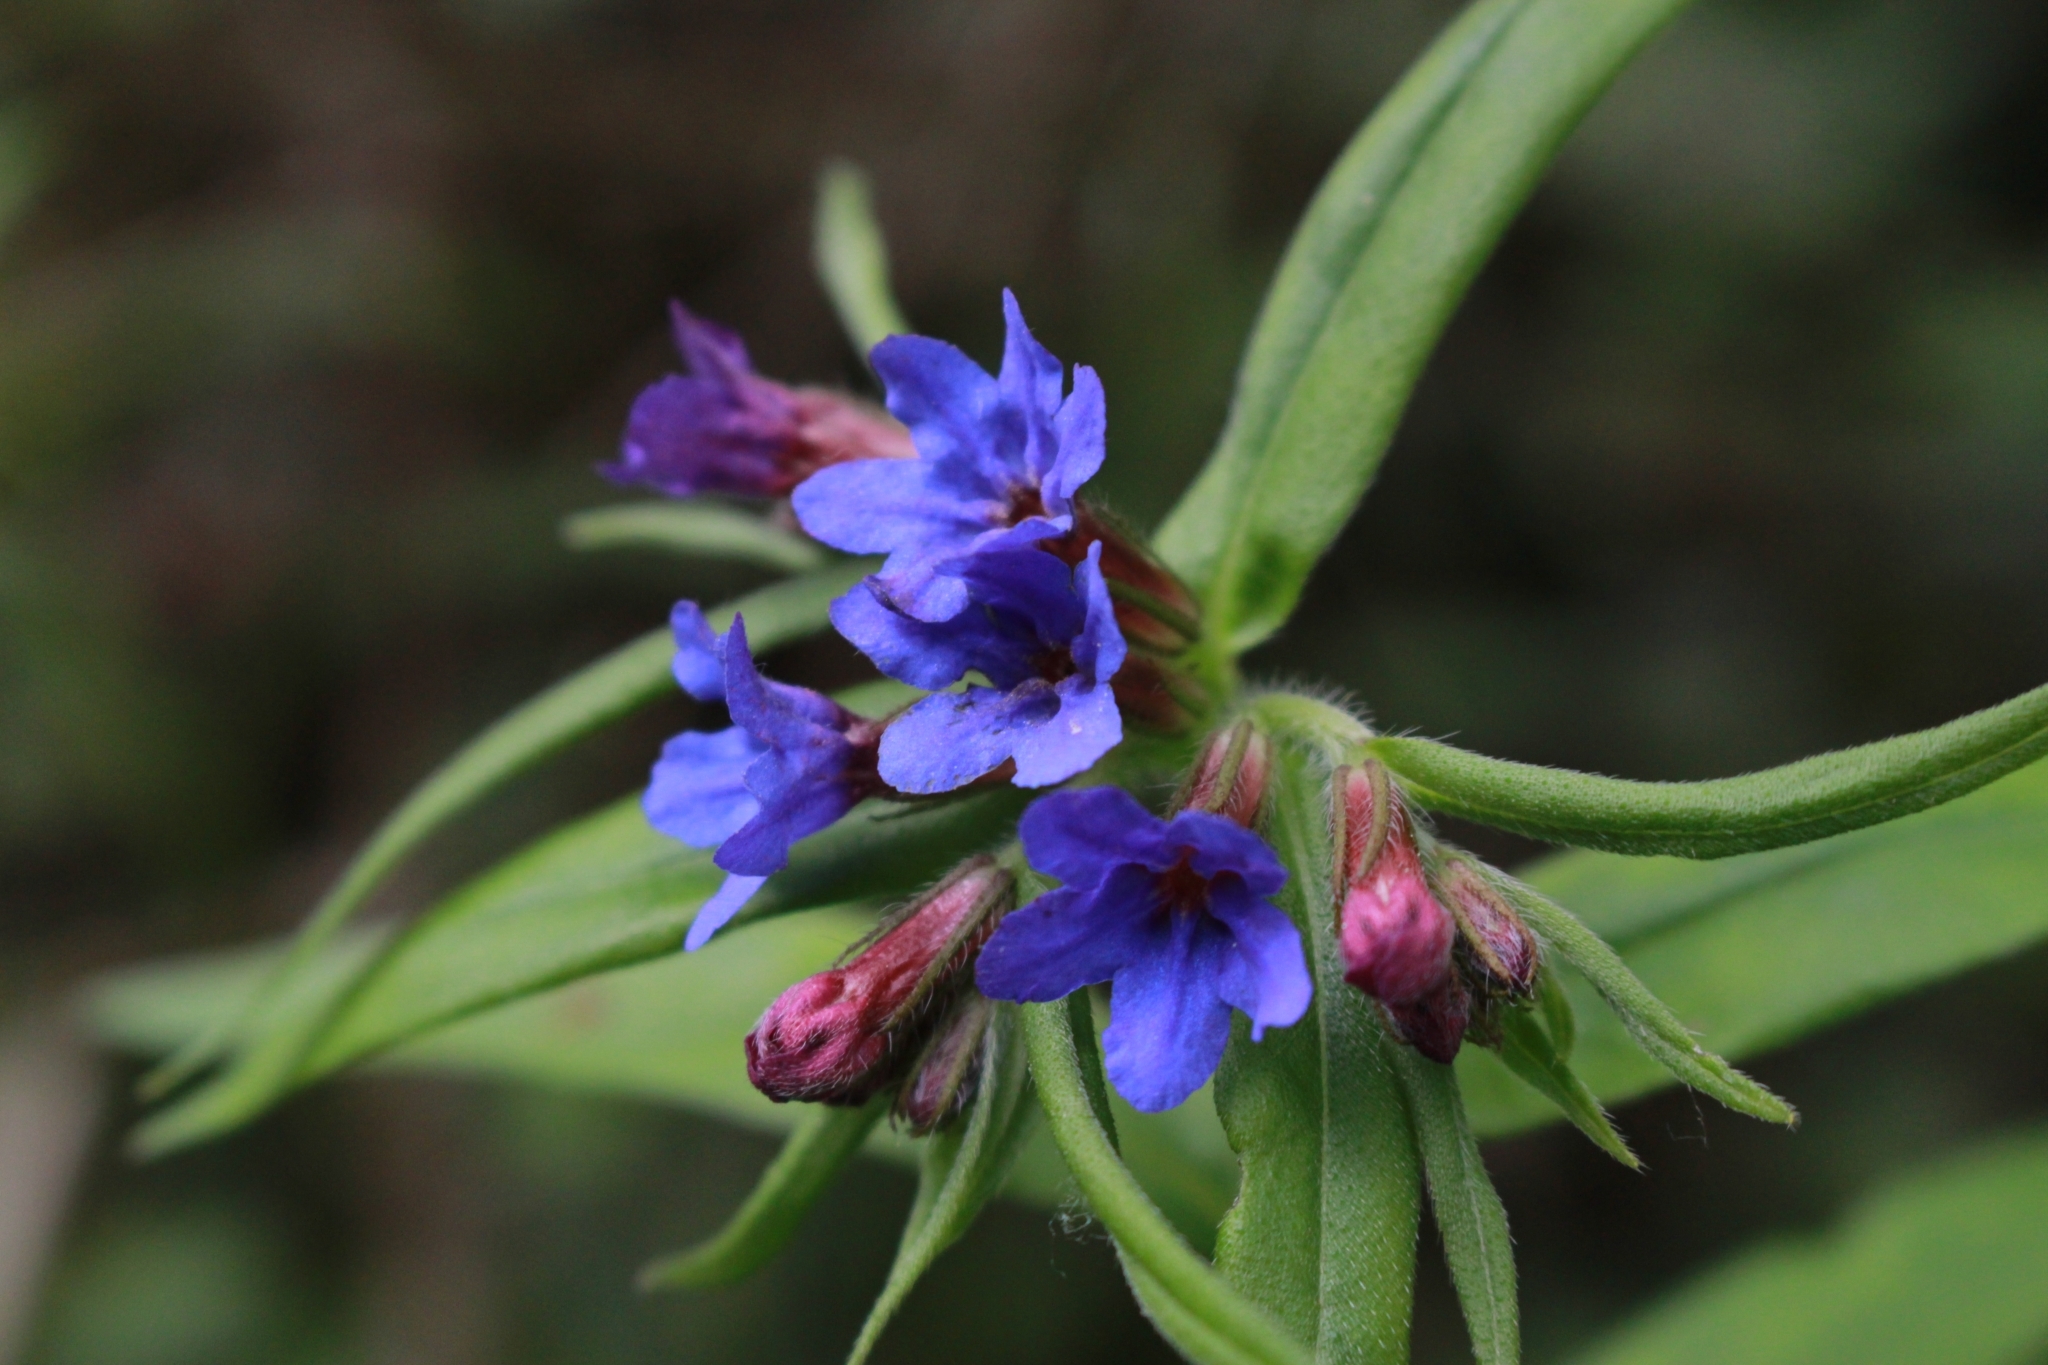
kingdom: Plantae
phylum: Tracheophyta
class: Magnoliopsida
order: Boraginales
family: Boraginaceae
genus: Aegonychon
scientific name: Aegonychon purpurocaeruleum
